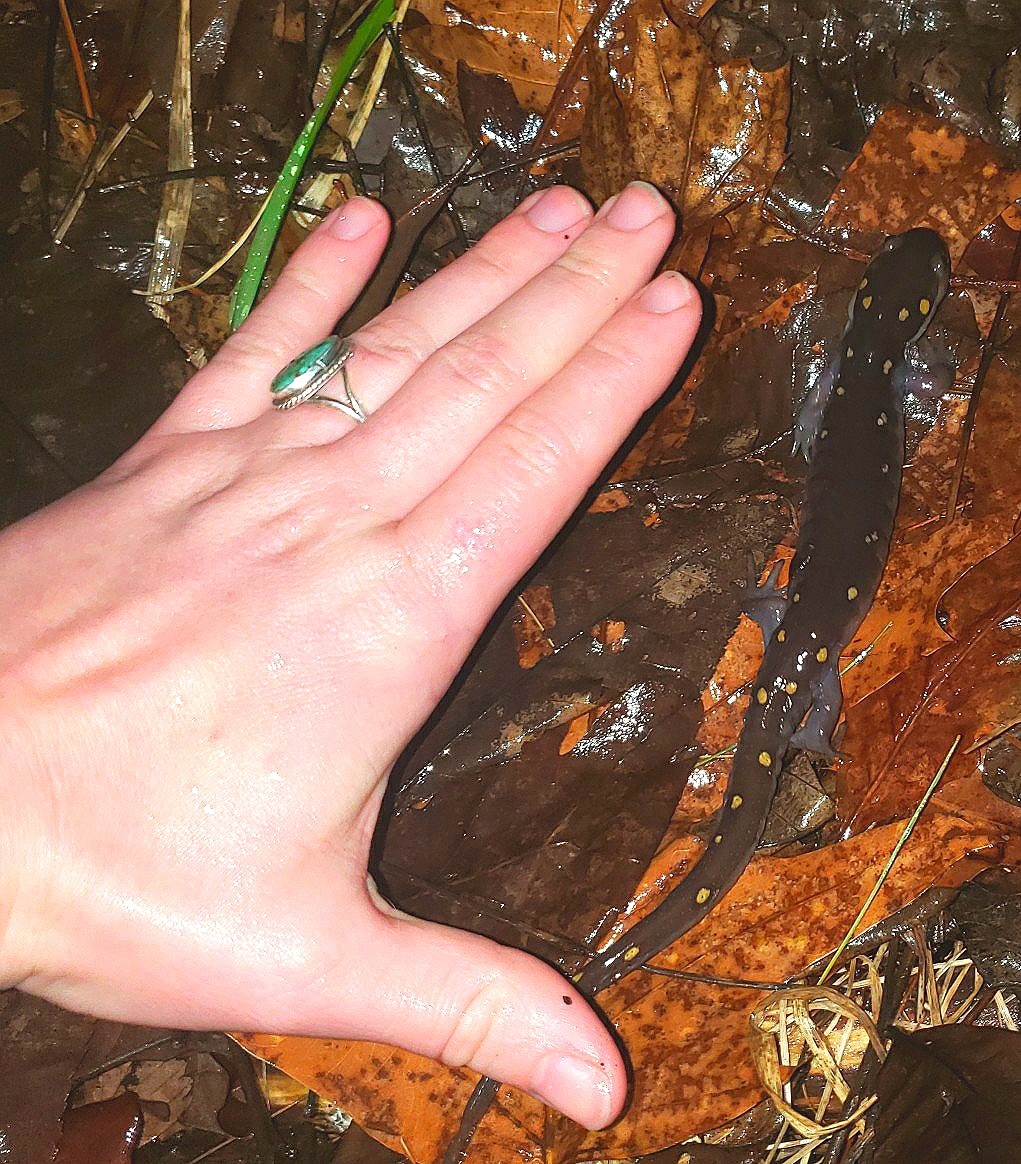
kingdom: Animalia
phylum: Chordata
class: Amphibia
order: Caudata
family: Ambystomatidae
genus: Ambystoma
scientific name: Ambystoma maculatum
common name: Spotted salamander
